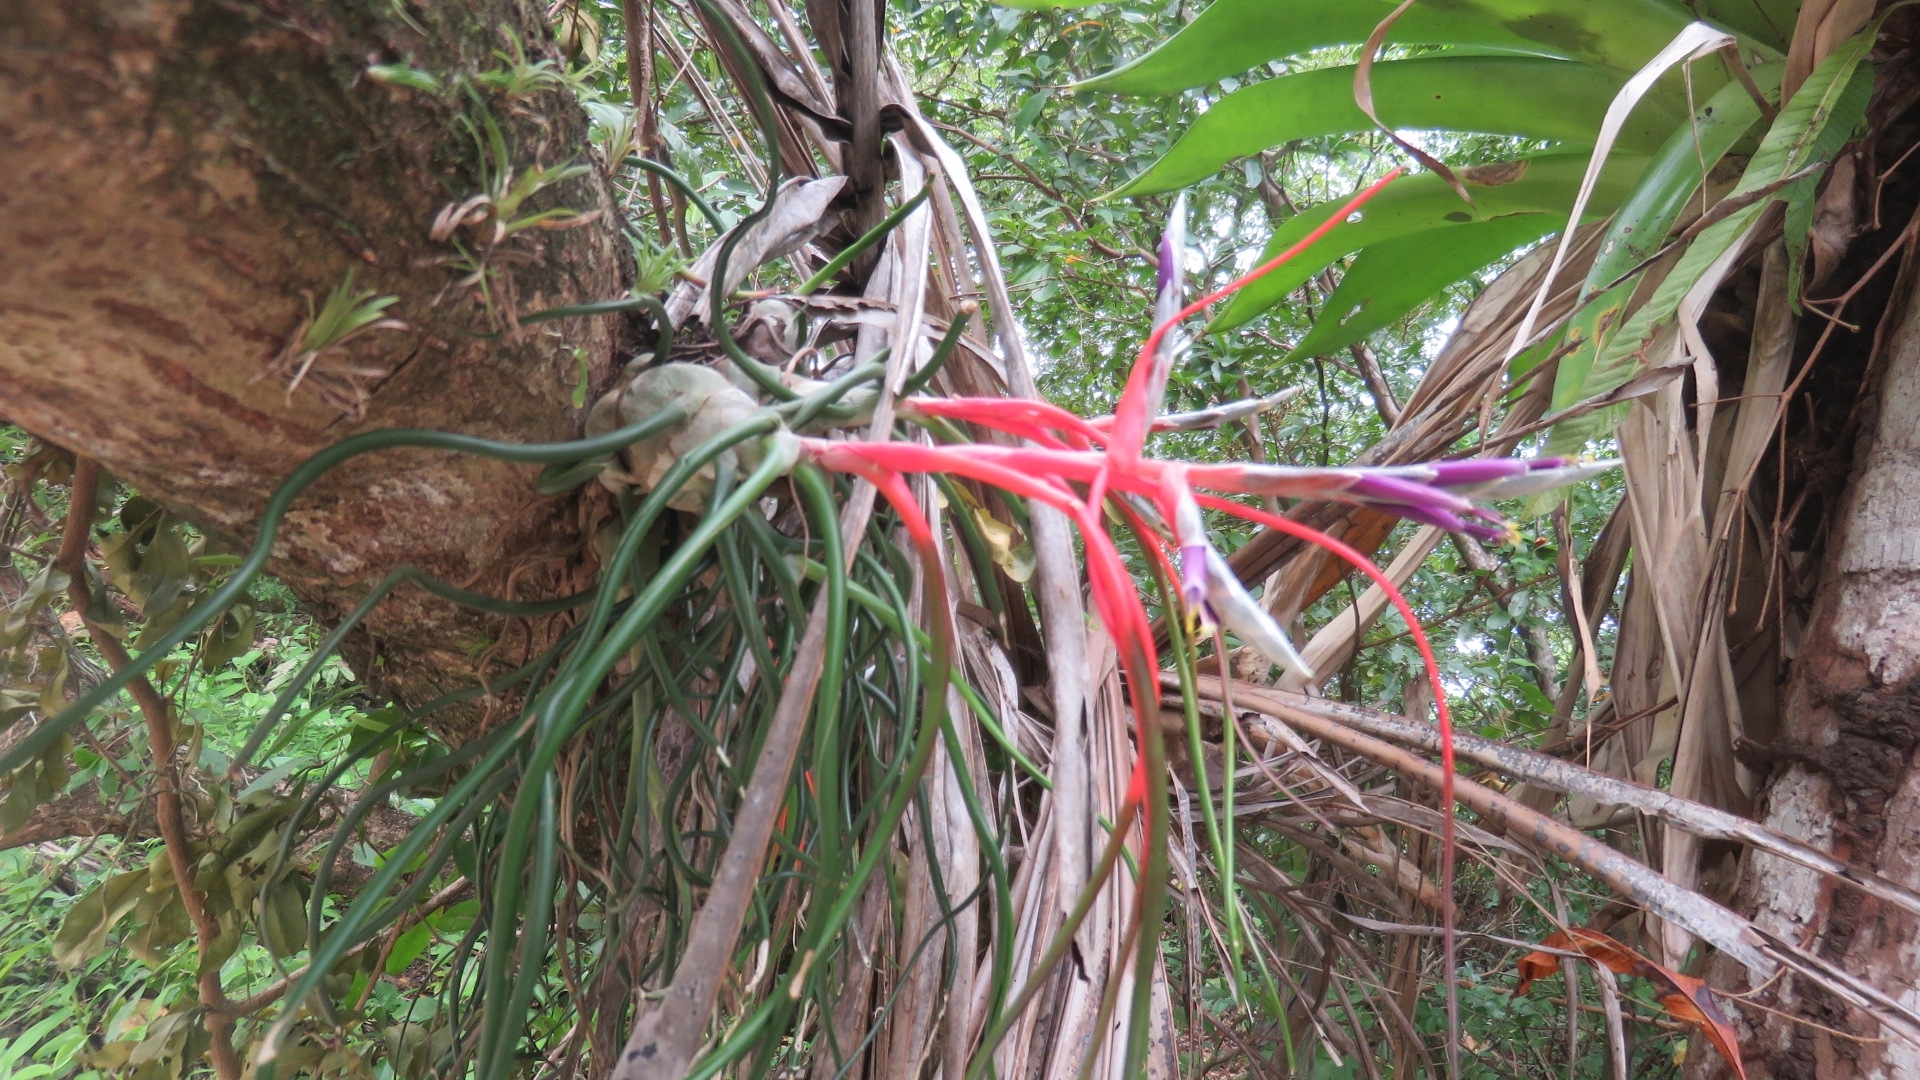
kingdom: Plantae
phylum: Tracheophyta
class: Liliopsida
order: Poales
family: Bromeliaceae
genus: Tillandsia
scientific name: Tillandsia bulbosa
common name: Bulbous airplant
